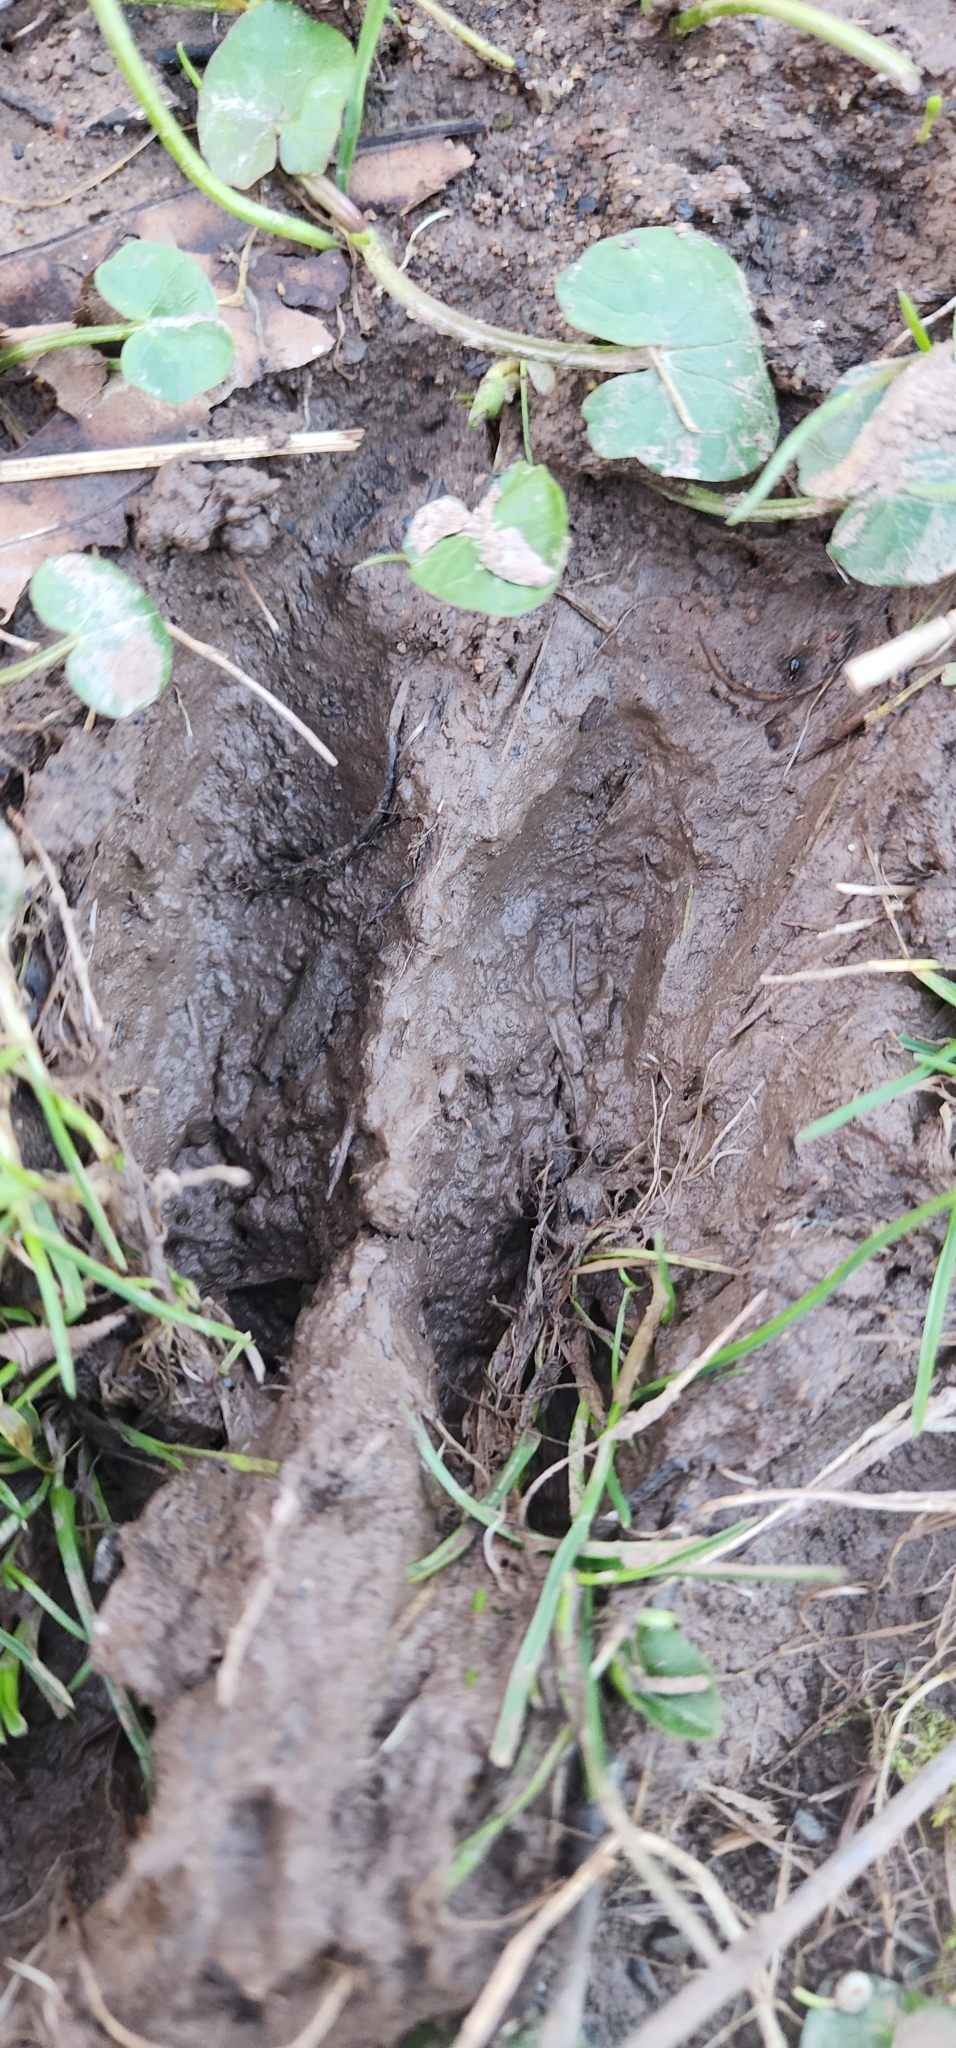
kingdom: Animalia
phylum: Chordata
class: Mammalia
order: Artiodactyla
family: Cervidae
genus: Odocoileus
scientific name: Odocoileus virginianus
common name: White-tailed deer
